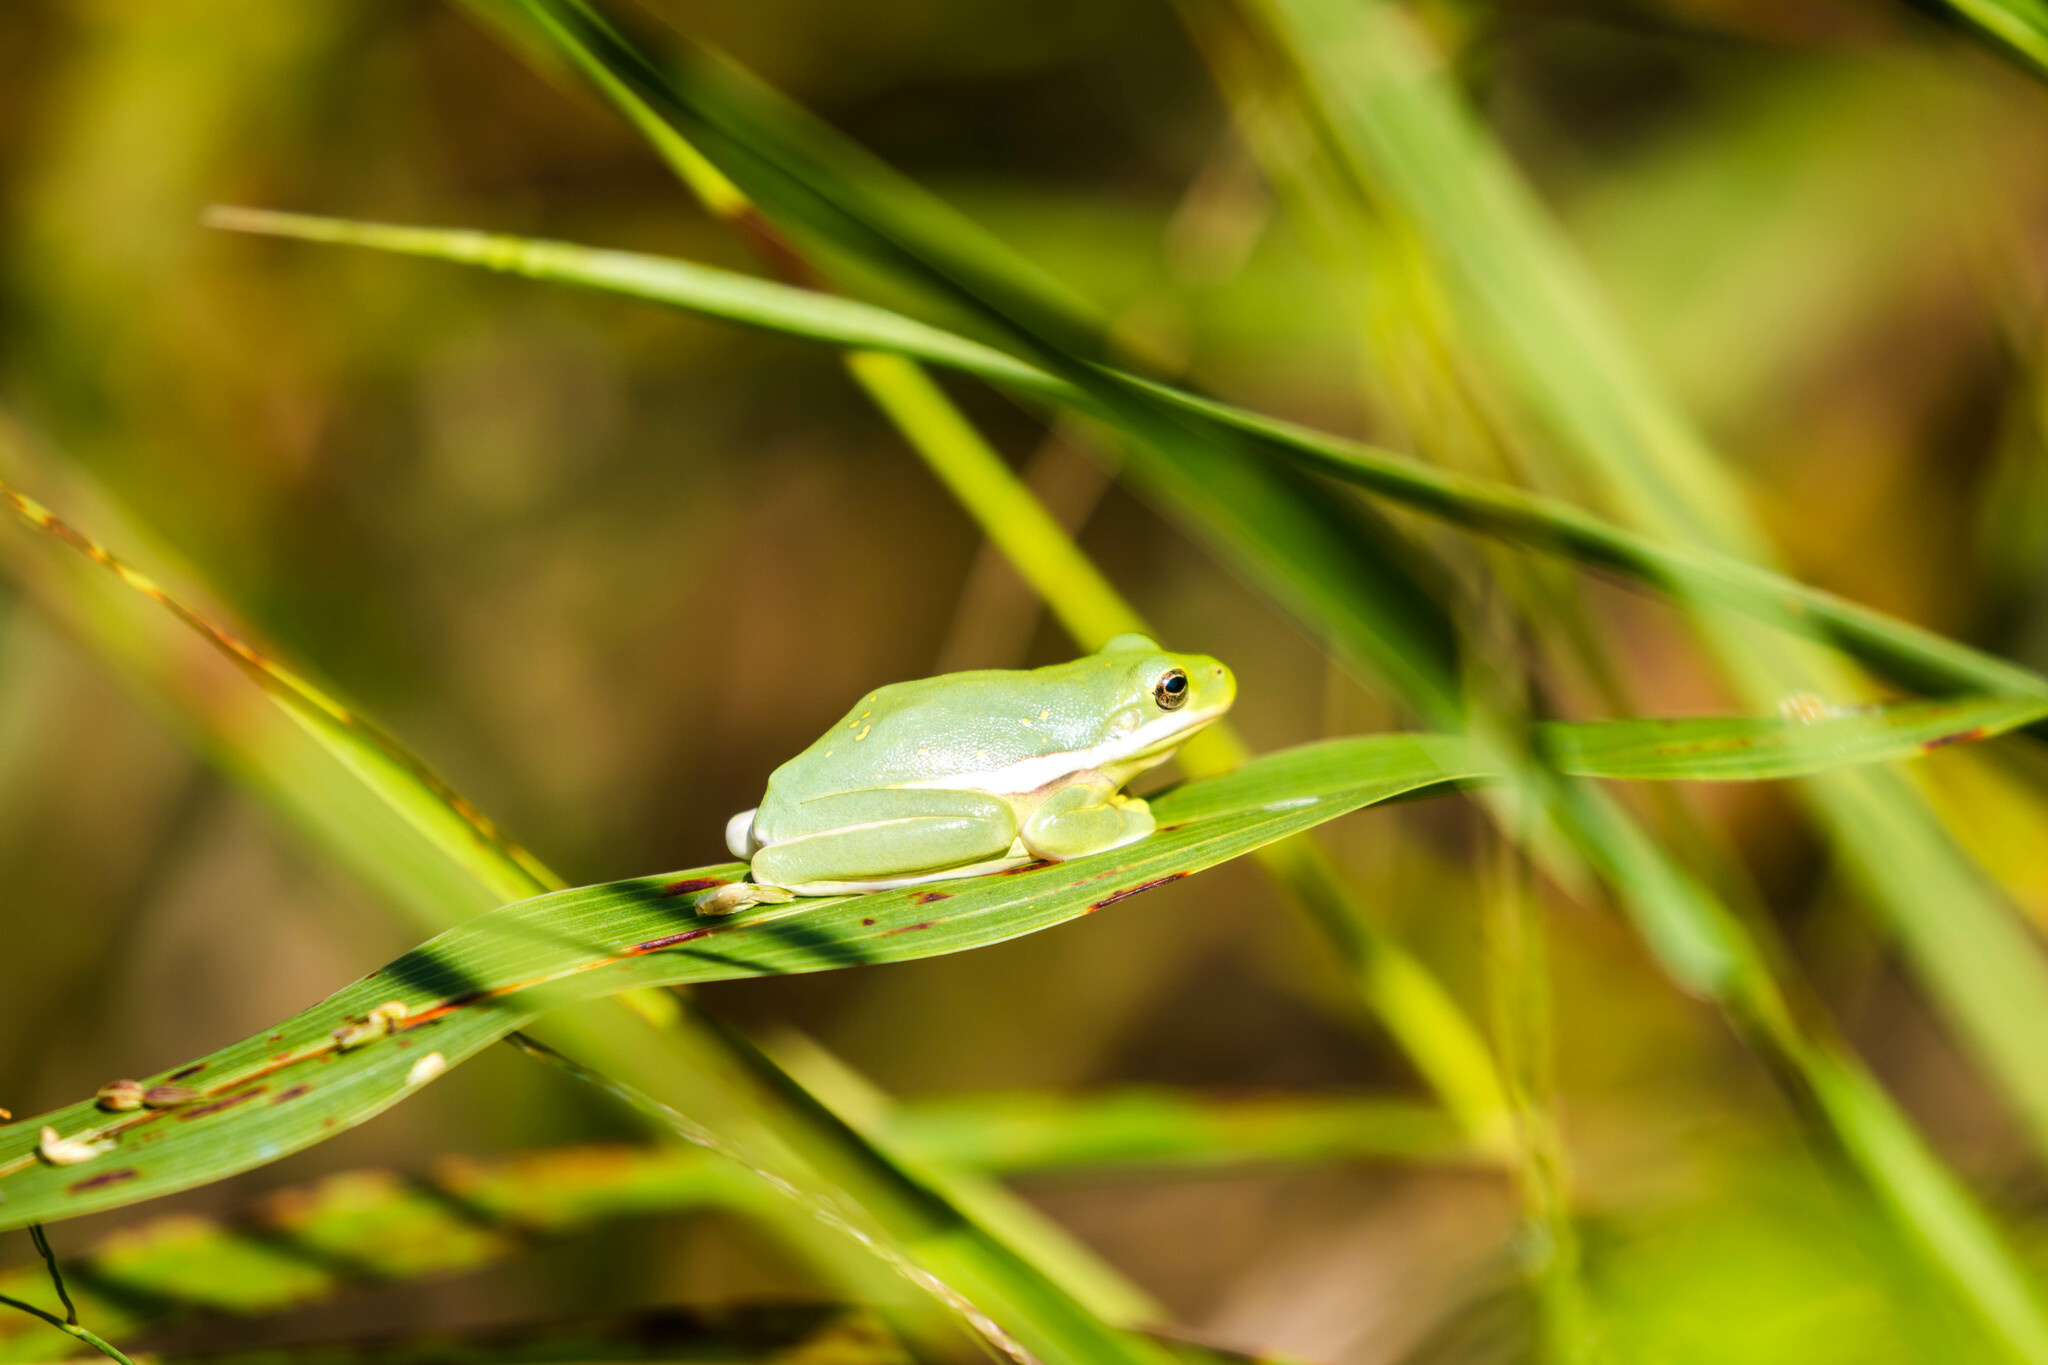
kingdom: Animalia
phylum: Chordata
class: Amphibia
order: Anura
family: Hylidae
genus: Dryophytes
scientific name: Dryophytes cinereus
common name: Green treefrog
